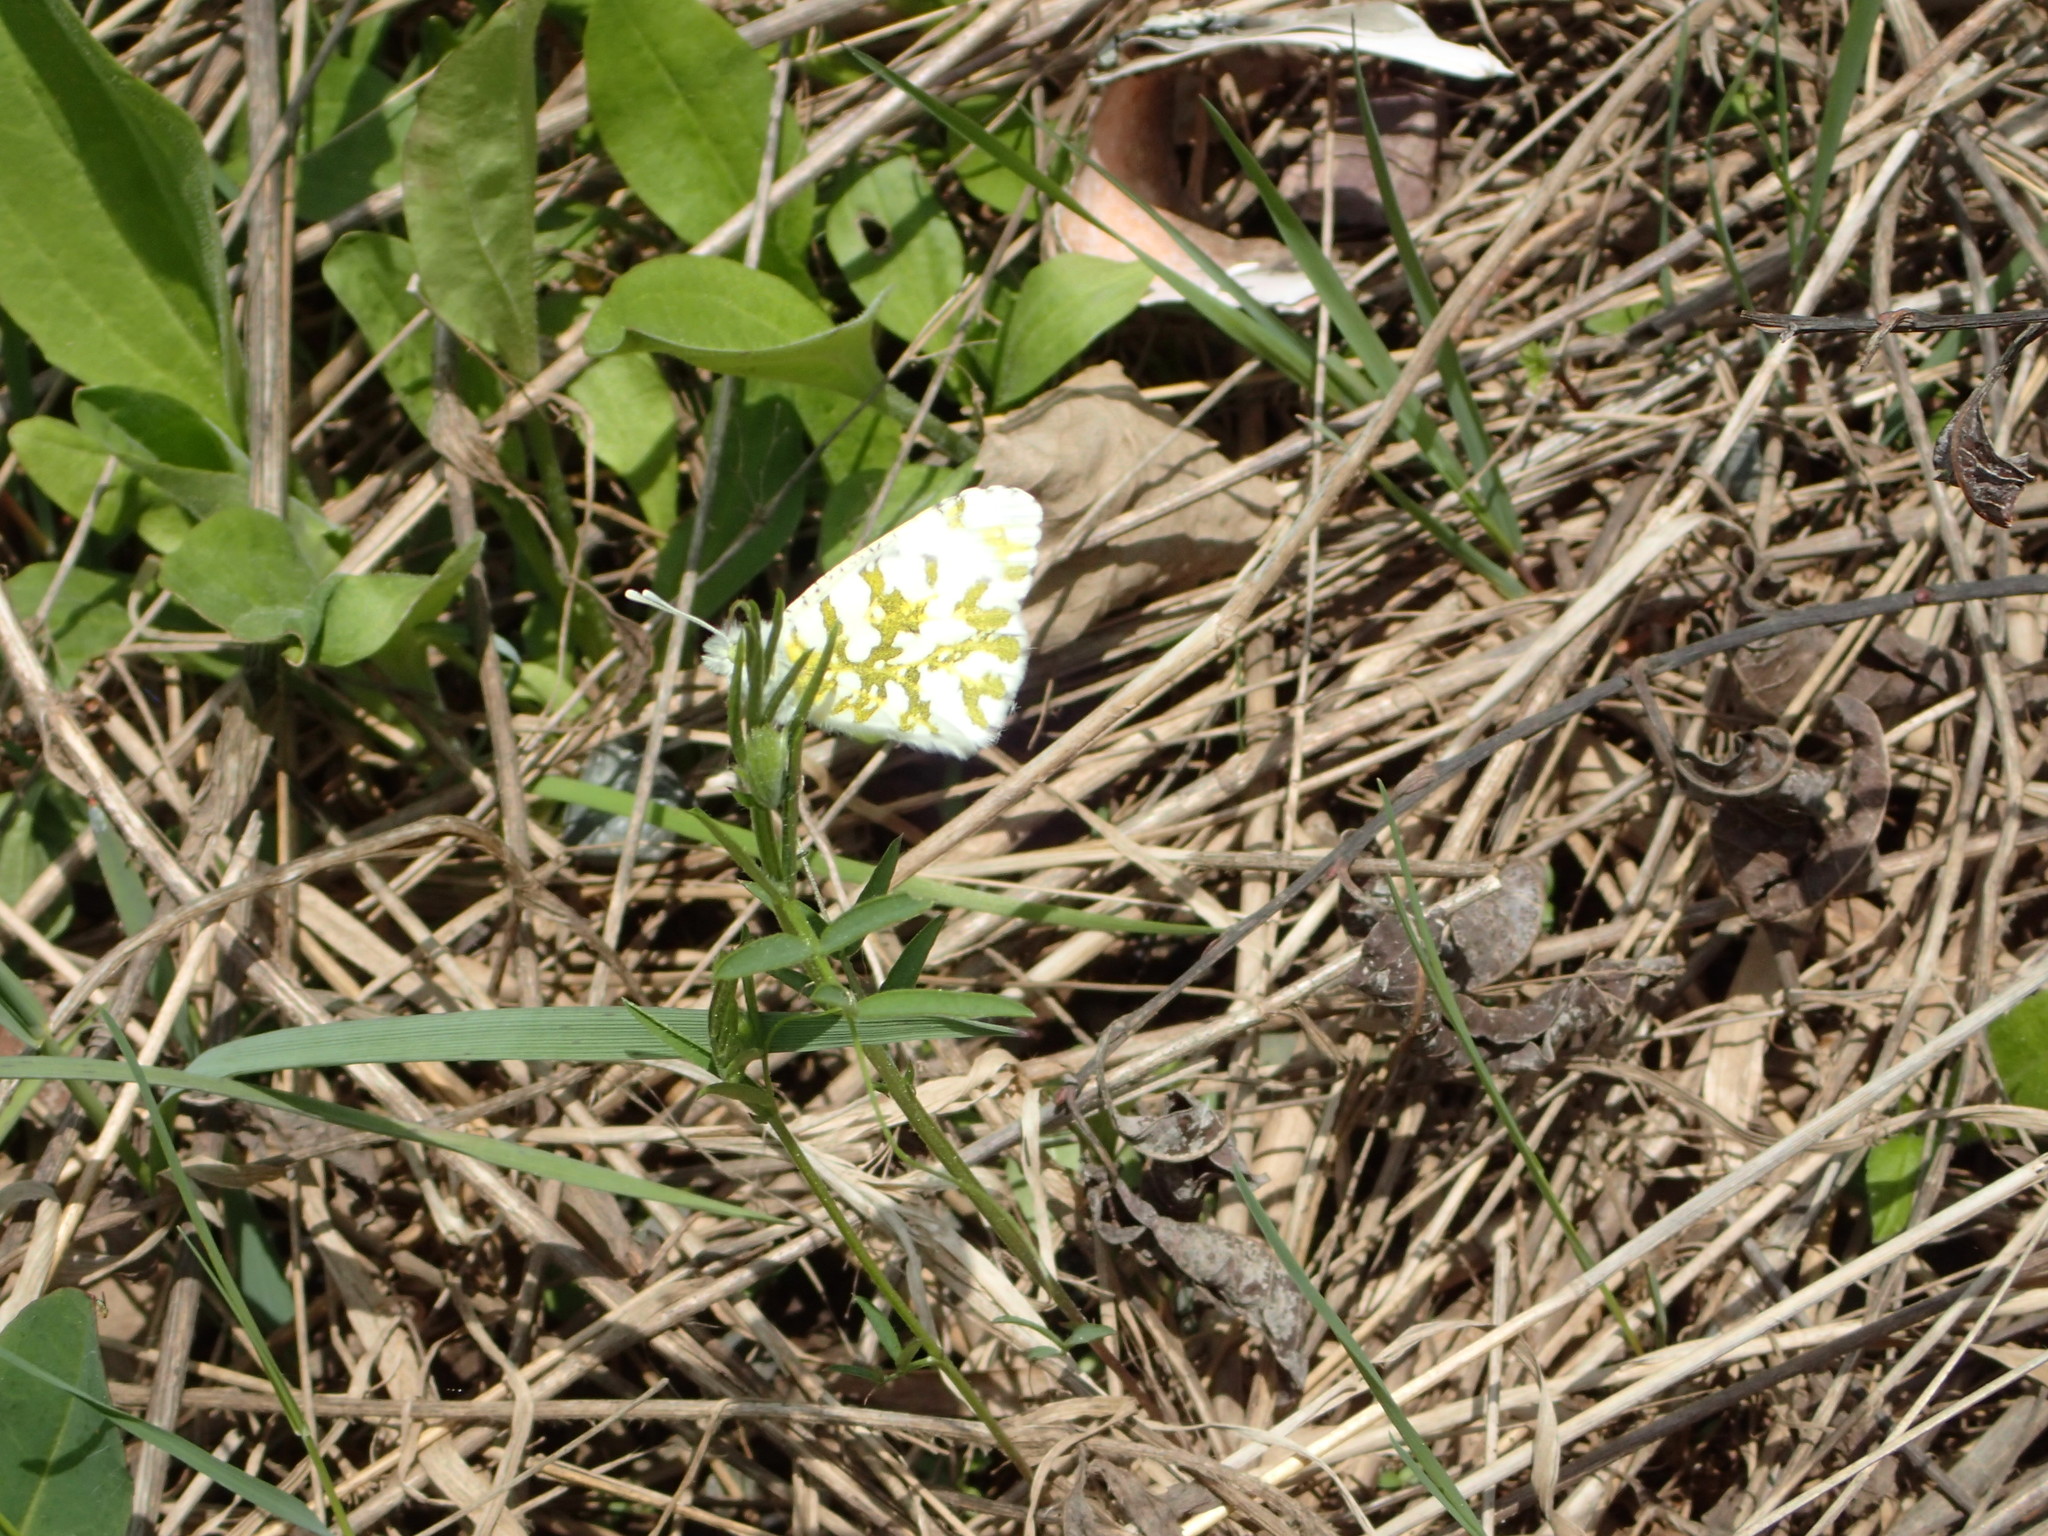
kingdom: Animalia
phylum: Arthropoda
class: Insecta
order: Lepidoptera
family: Pieridae
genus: Euchloe
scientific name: Euchloe ausonides
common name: Creamy marblewing
